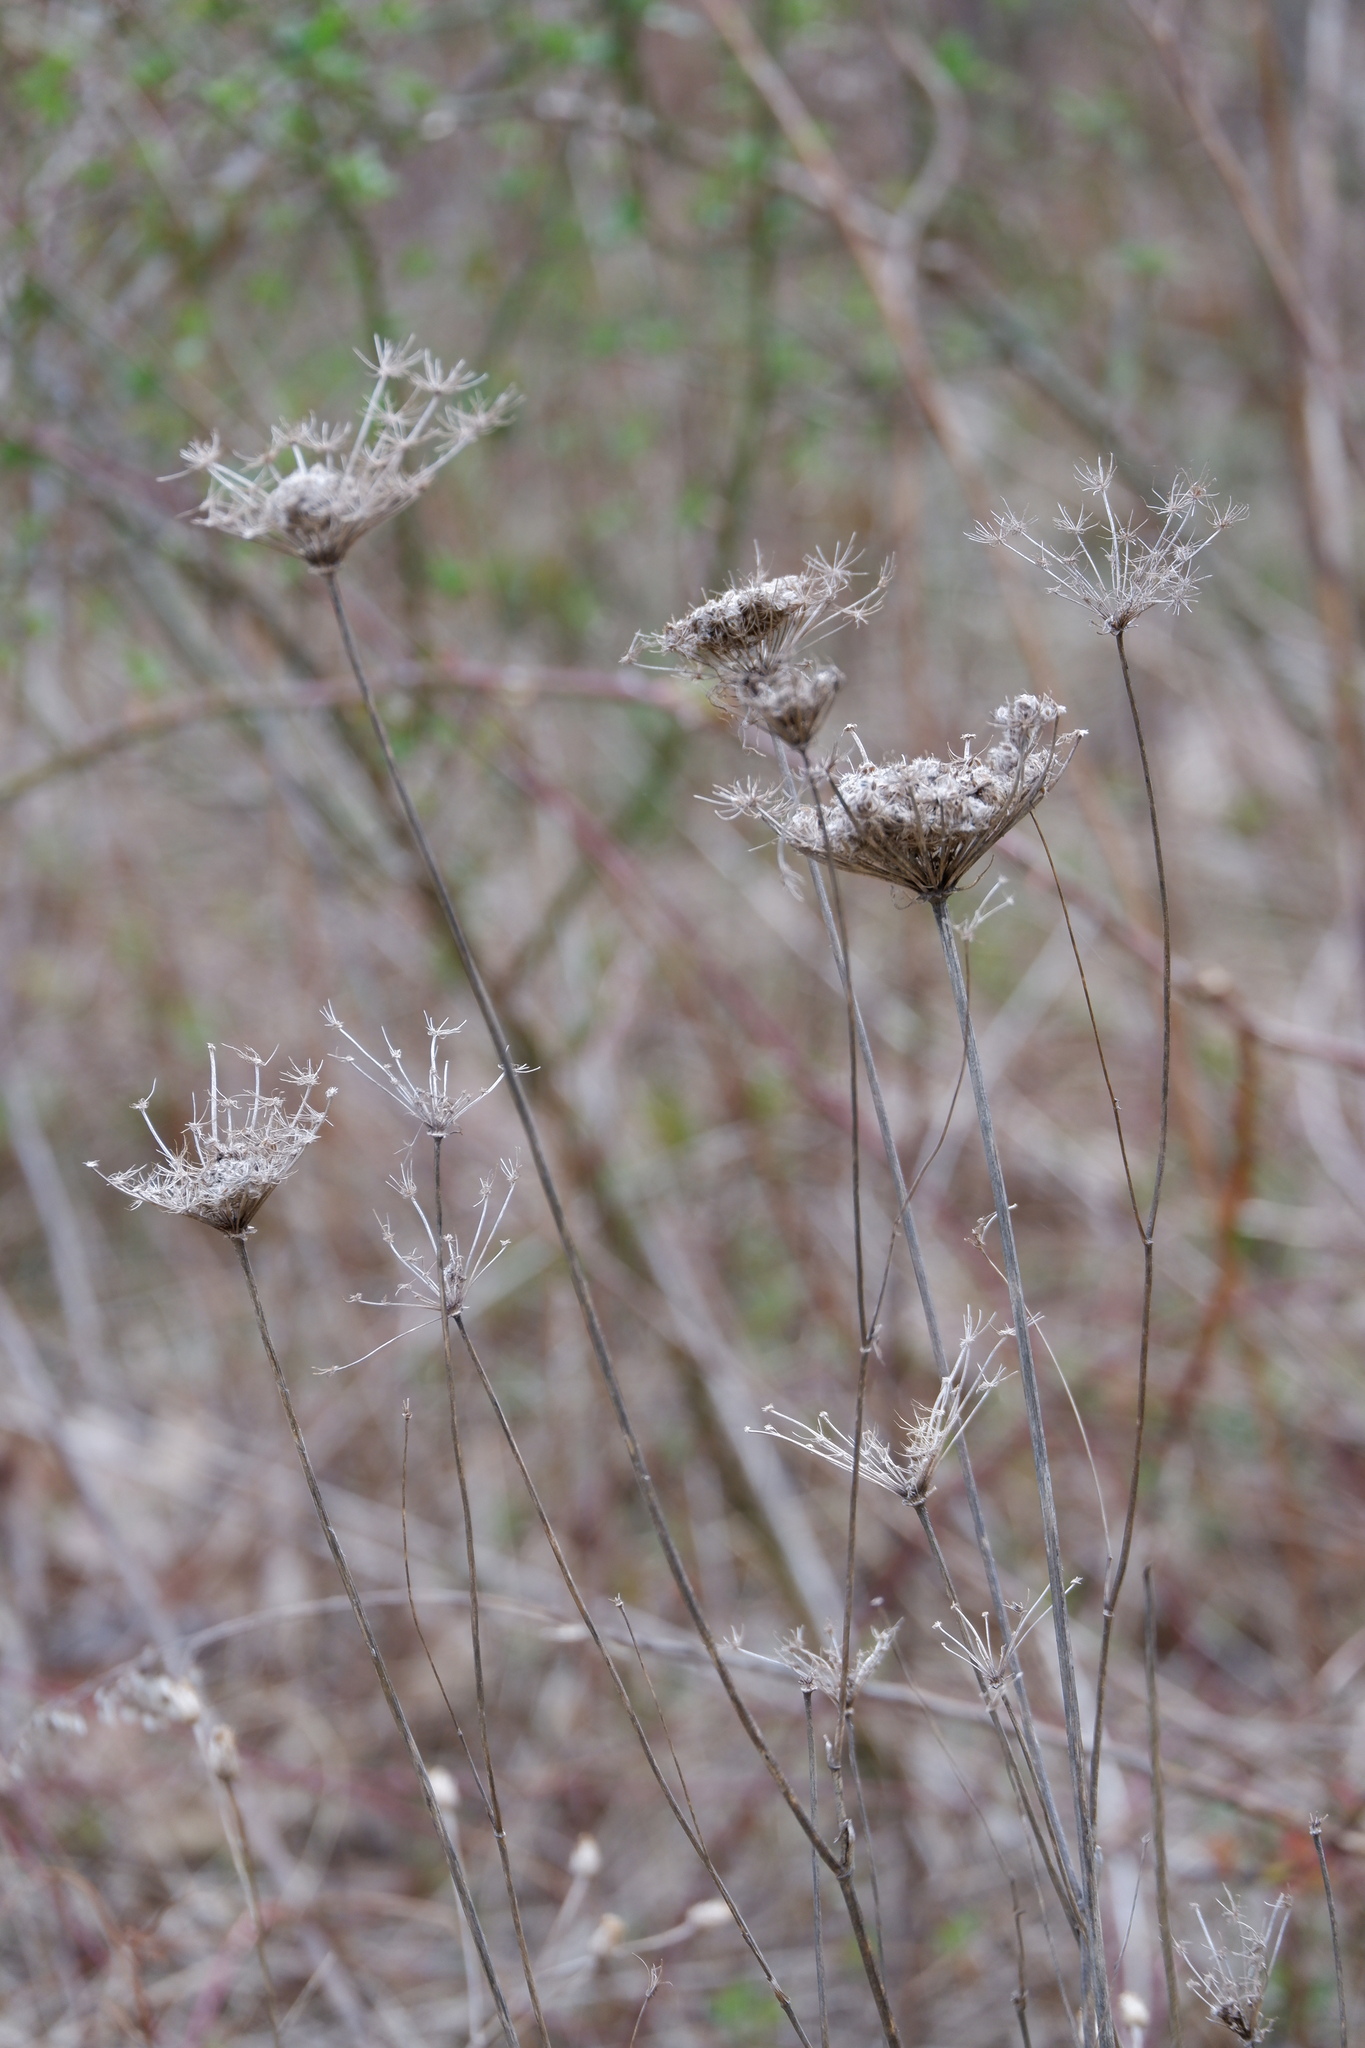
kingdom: Plantae
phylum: Tracheophyta
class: Magnoliopsida
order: Apiales
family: Apiaceae
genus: Daucus
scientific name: Daucus carota
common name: Wild carrot
